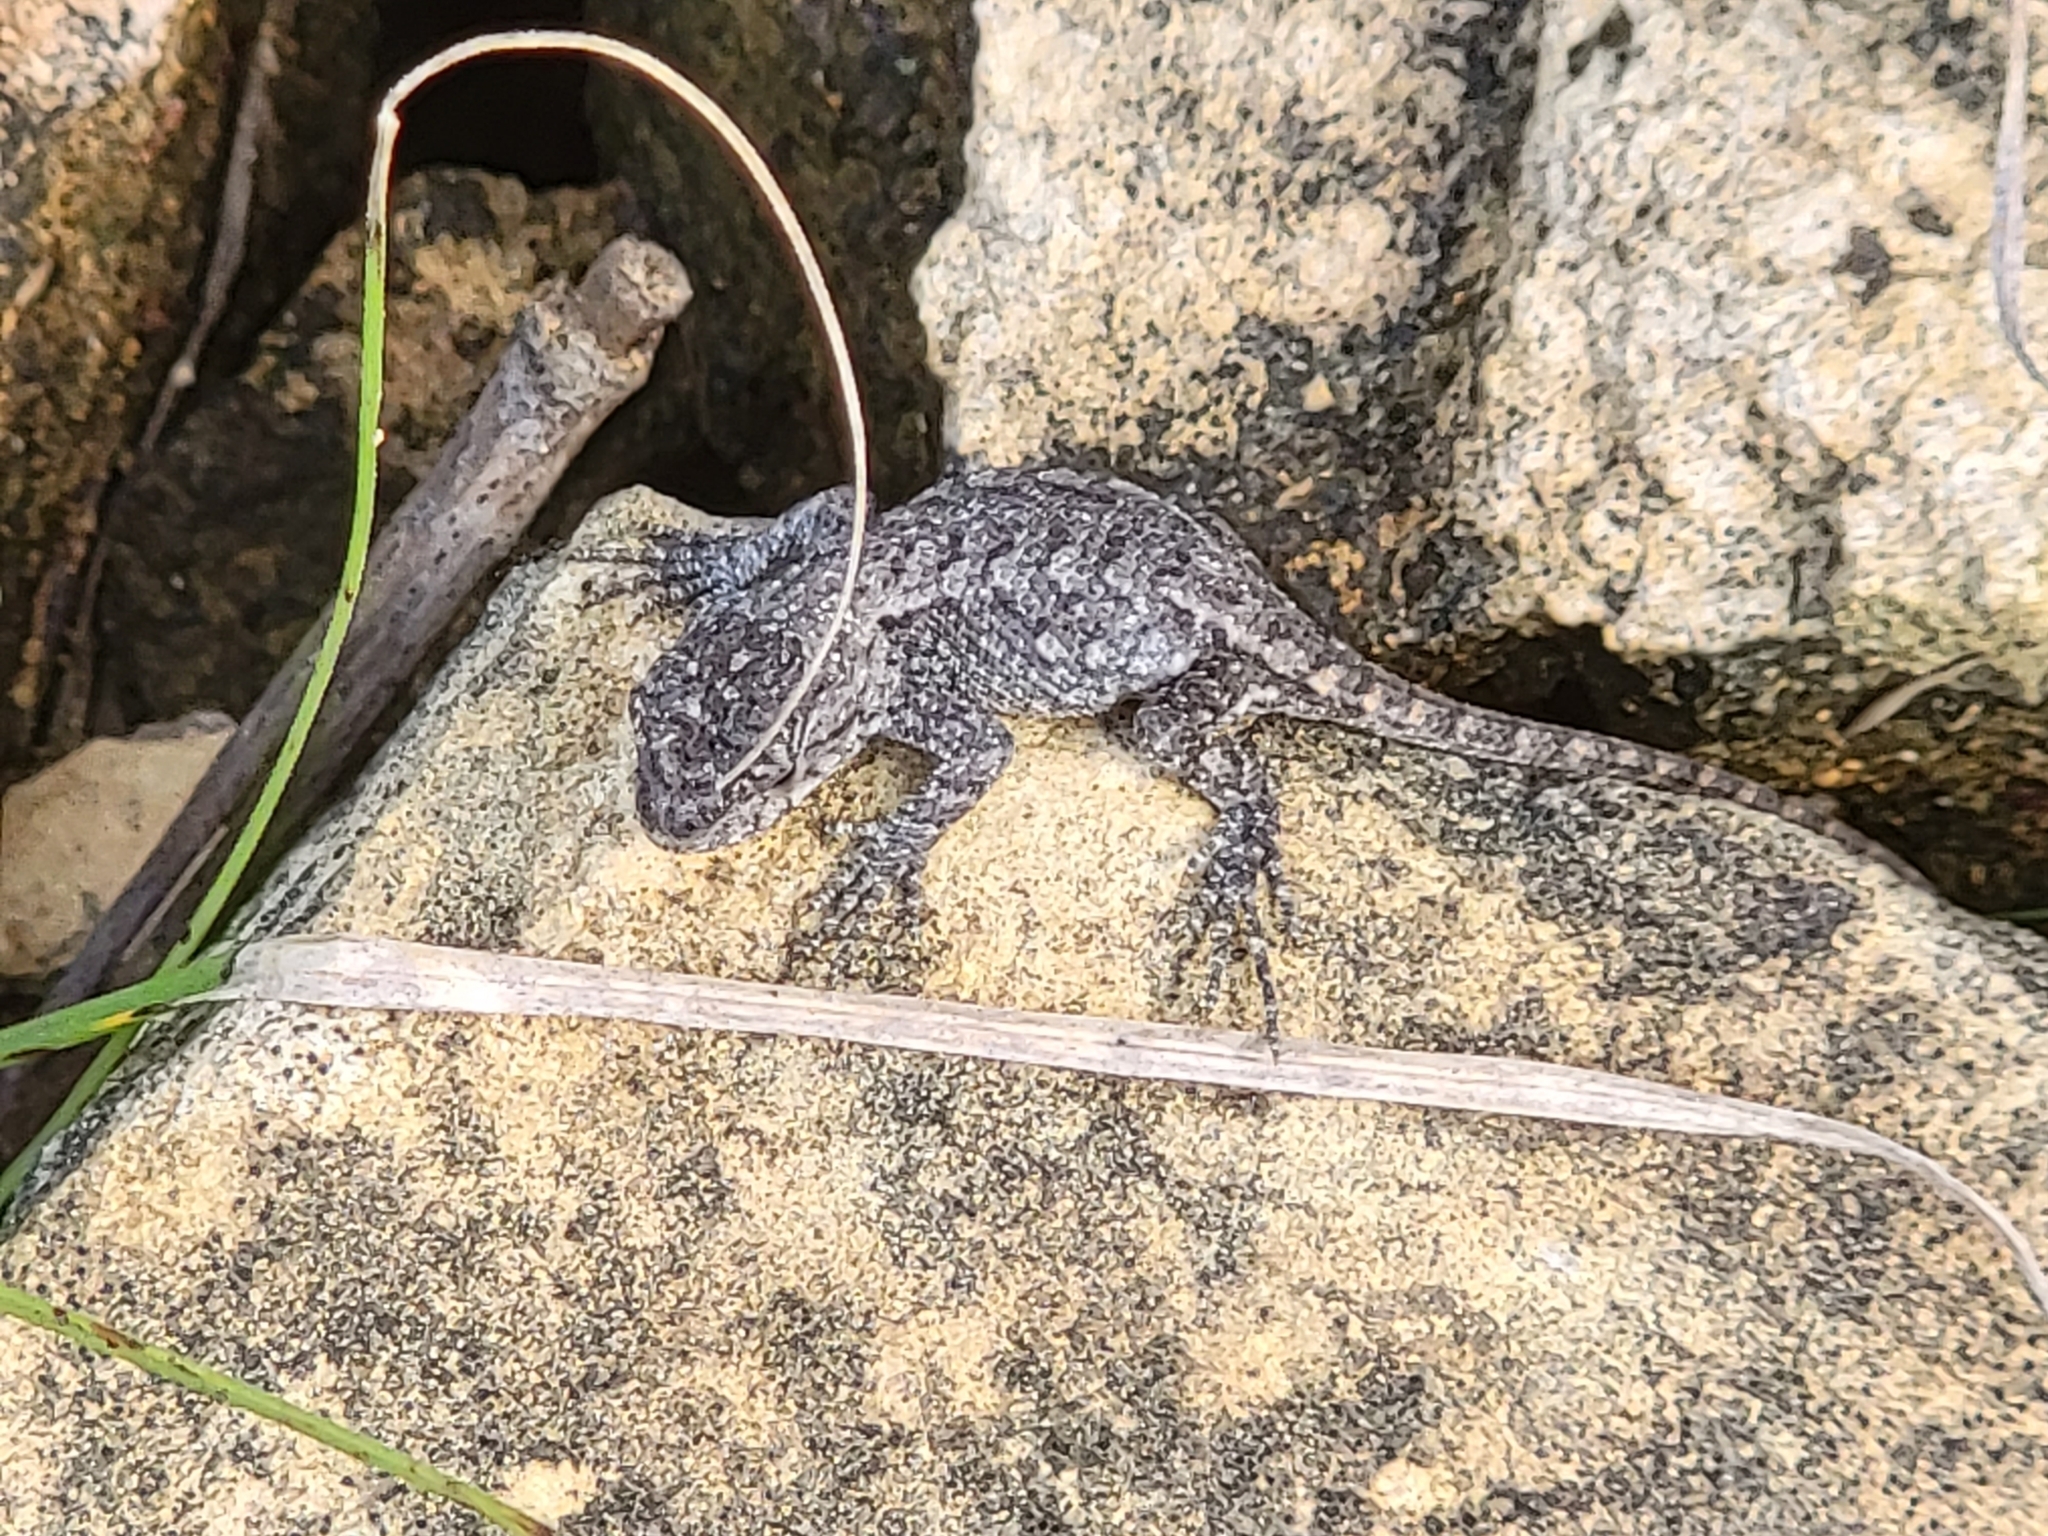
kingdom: Animalia
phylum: Chordata
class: Squamata
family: Phrynosomatidae
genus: Sceloporus
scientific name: Sceloporus undulatus
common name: Eastern fence lizard
